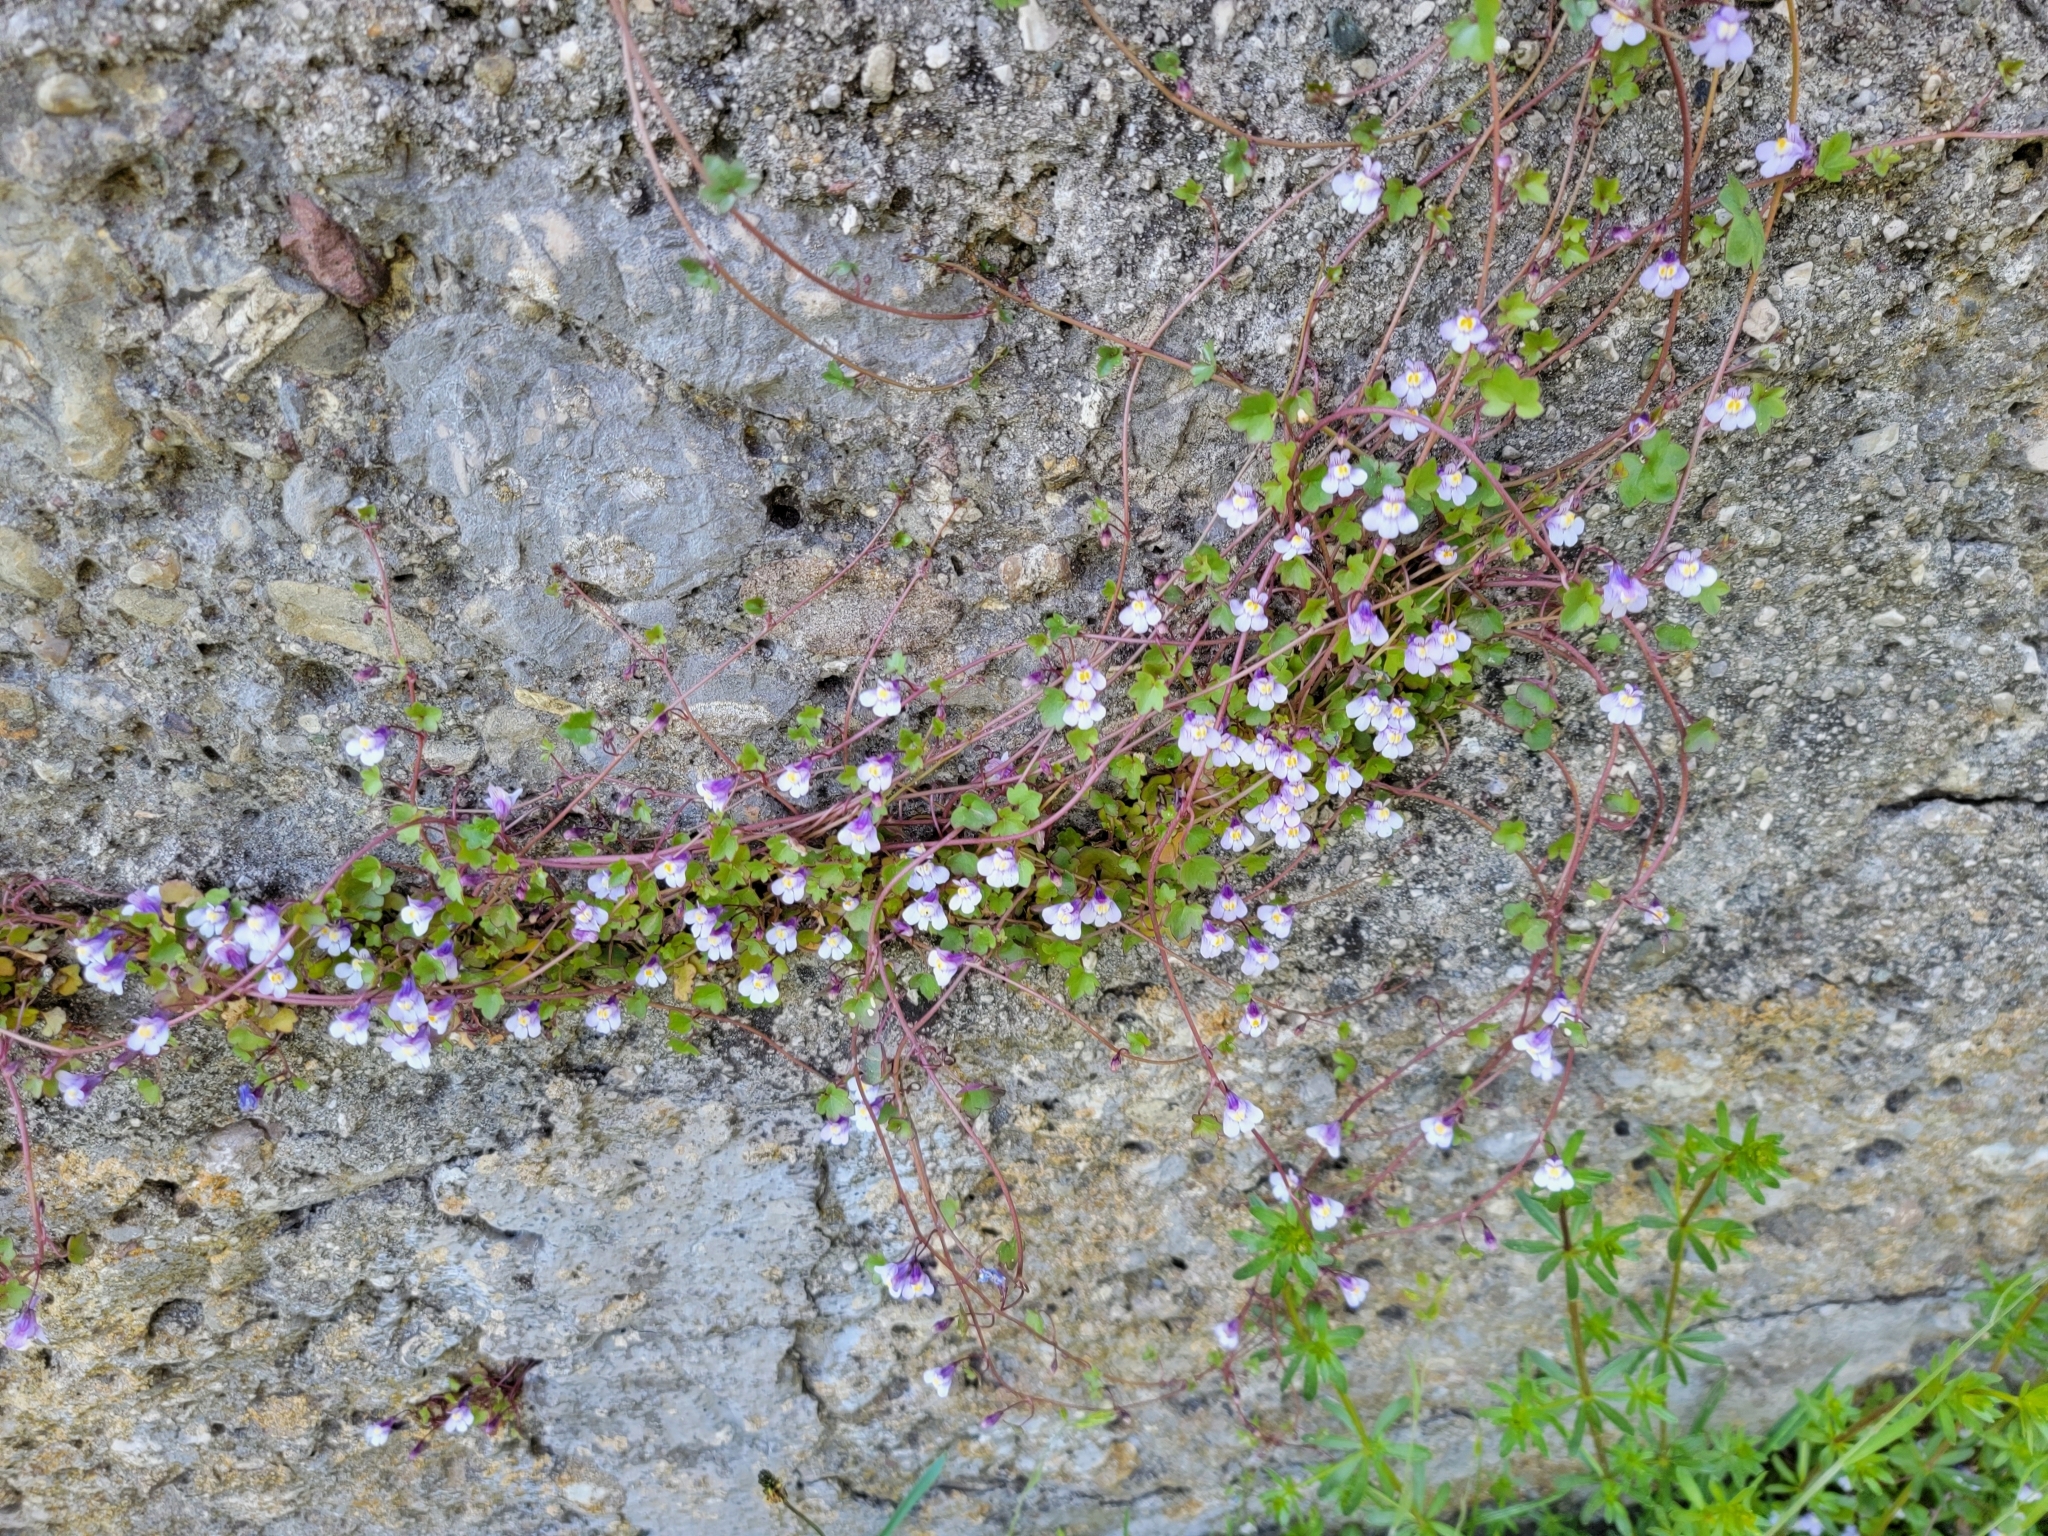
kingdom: Plantae
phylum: Tracheophyta
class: Magnoliopsida
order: Lamiales
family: Plantaginaceae
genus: Cymbalaria
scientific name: Cymbalaria muralis
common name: Ivy-leaved toadflax
